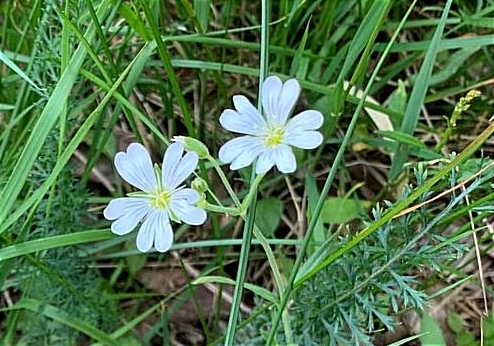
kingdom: Plantae
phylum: Tracheophyta
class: Magnoliopsida
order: Caryophyllales
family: Caryophyllaceae
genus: Cerastium
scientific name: Cerastium arvense
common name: Field mouse-ear
